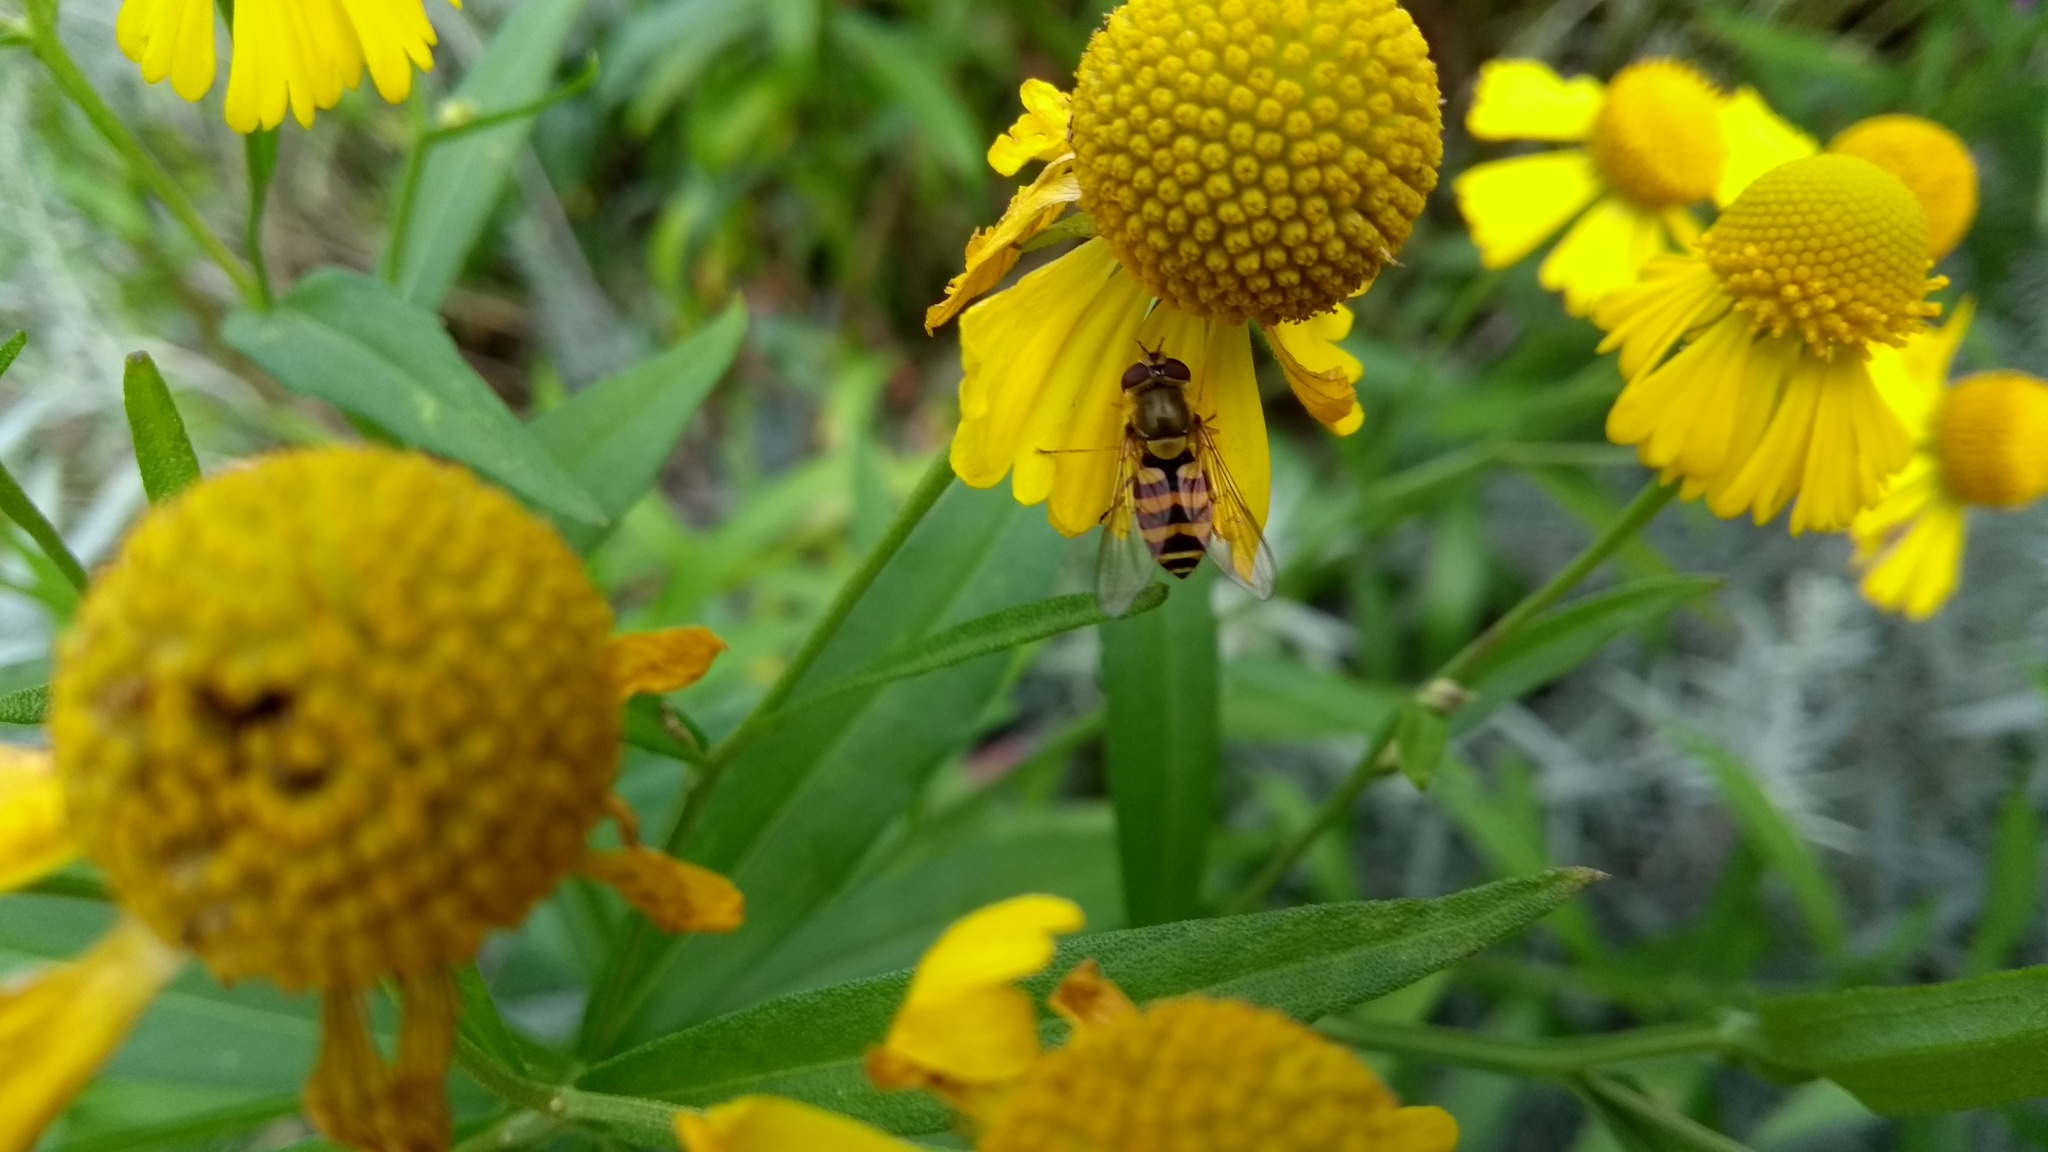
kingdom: Animalia
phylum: Arthropoda
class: Insecta
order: Diptera
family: Syrphidae
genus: Syrphus
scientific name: Syrphus
